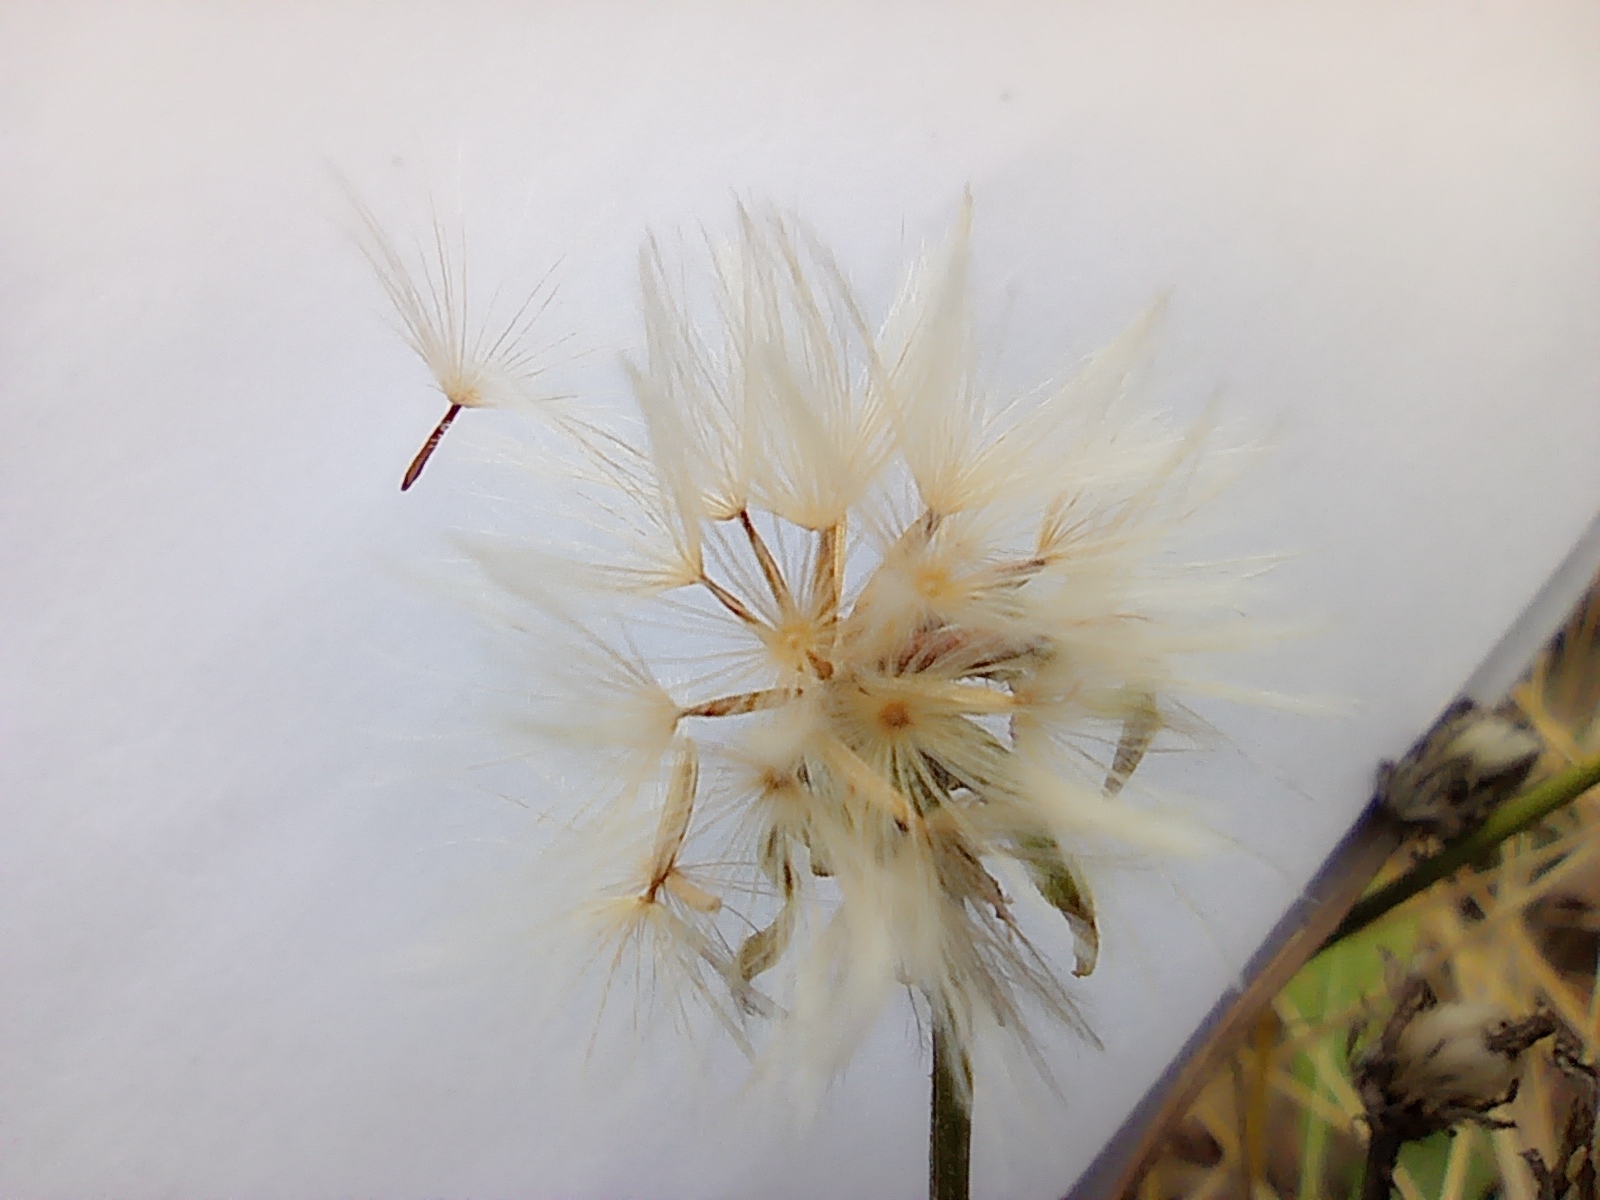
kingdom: Plantae
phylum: Tracheophyta
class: Magnoliopsida
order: Asterales
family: Asteraceae
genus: Picris
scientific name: Picris hieracioides
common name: Hawkweed oxtongue
